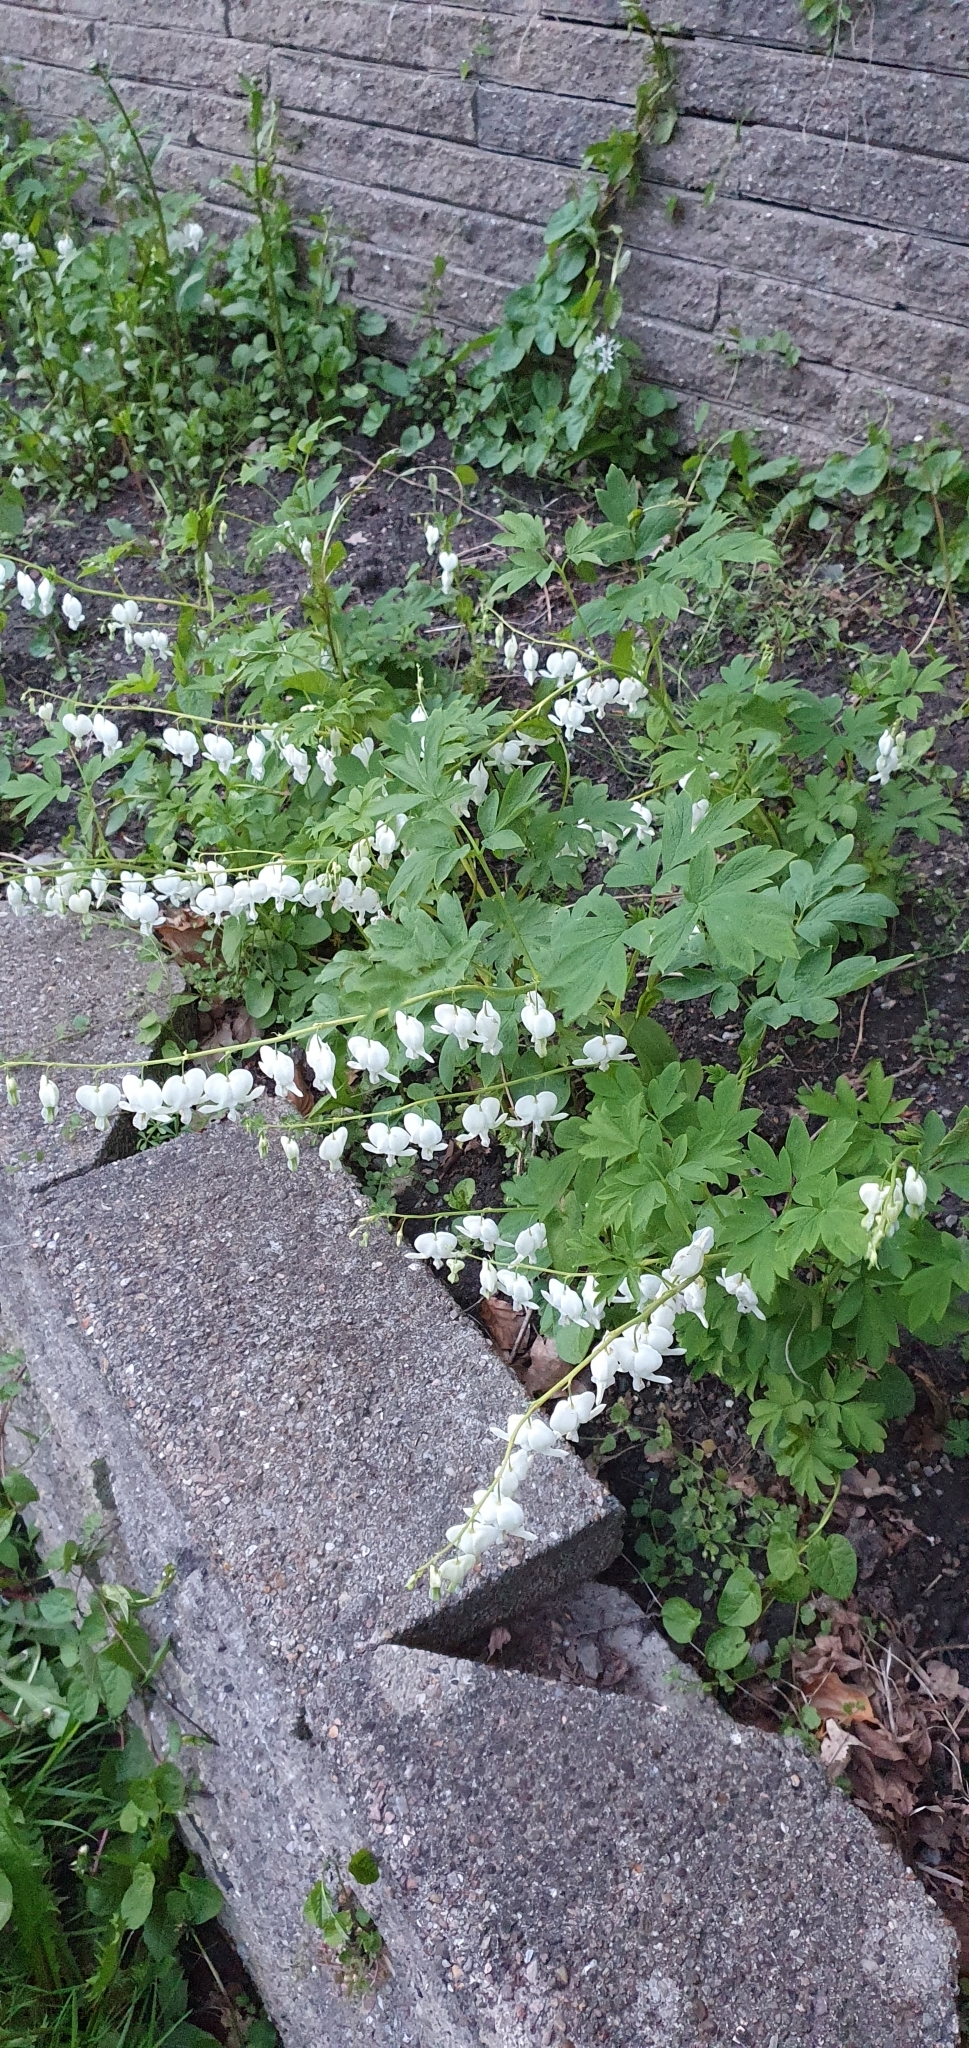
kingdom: Plantae
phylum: Tracheophyta
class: Magnoliopsida
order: Ranunculales
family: Papaveraceae
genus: Lamprocapnos
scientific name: Lamprocapnos spectabilis
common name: Asian bleeding-heart
